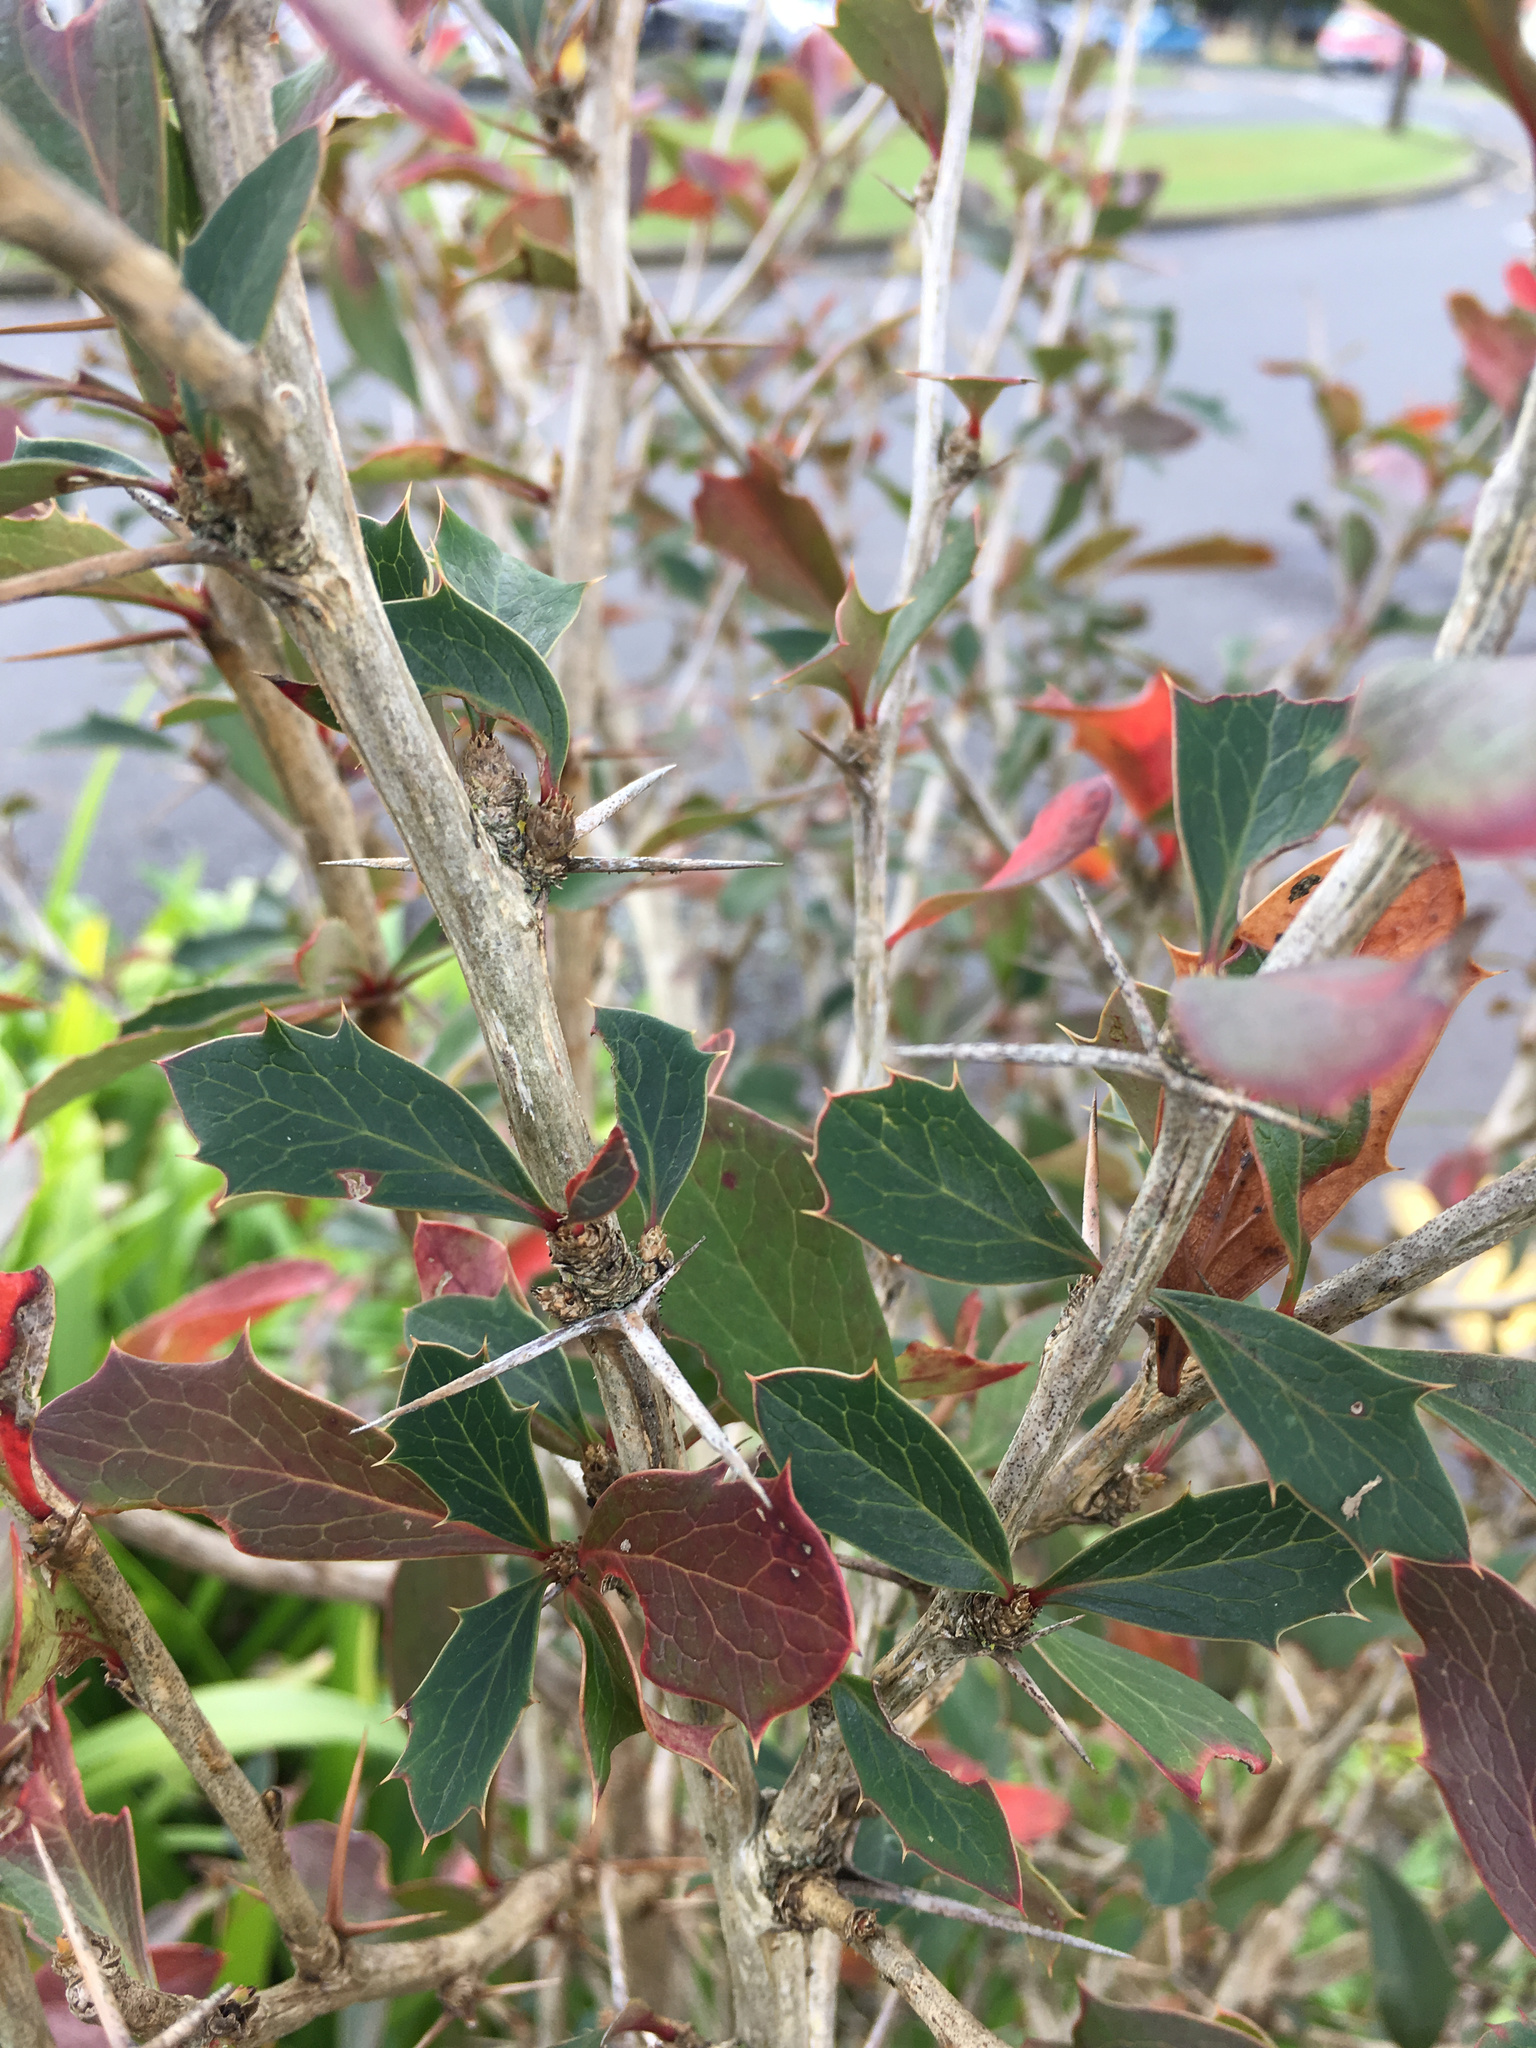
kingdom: Plantae
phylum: Tracheophyta
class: Magnoliopsida
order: Ranunculales
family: Berberidaceae
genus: Berberis
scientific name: Berberis glaucocarpa
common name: Great barberry
